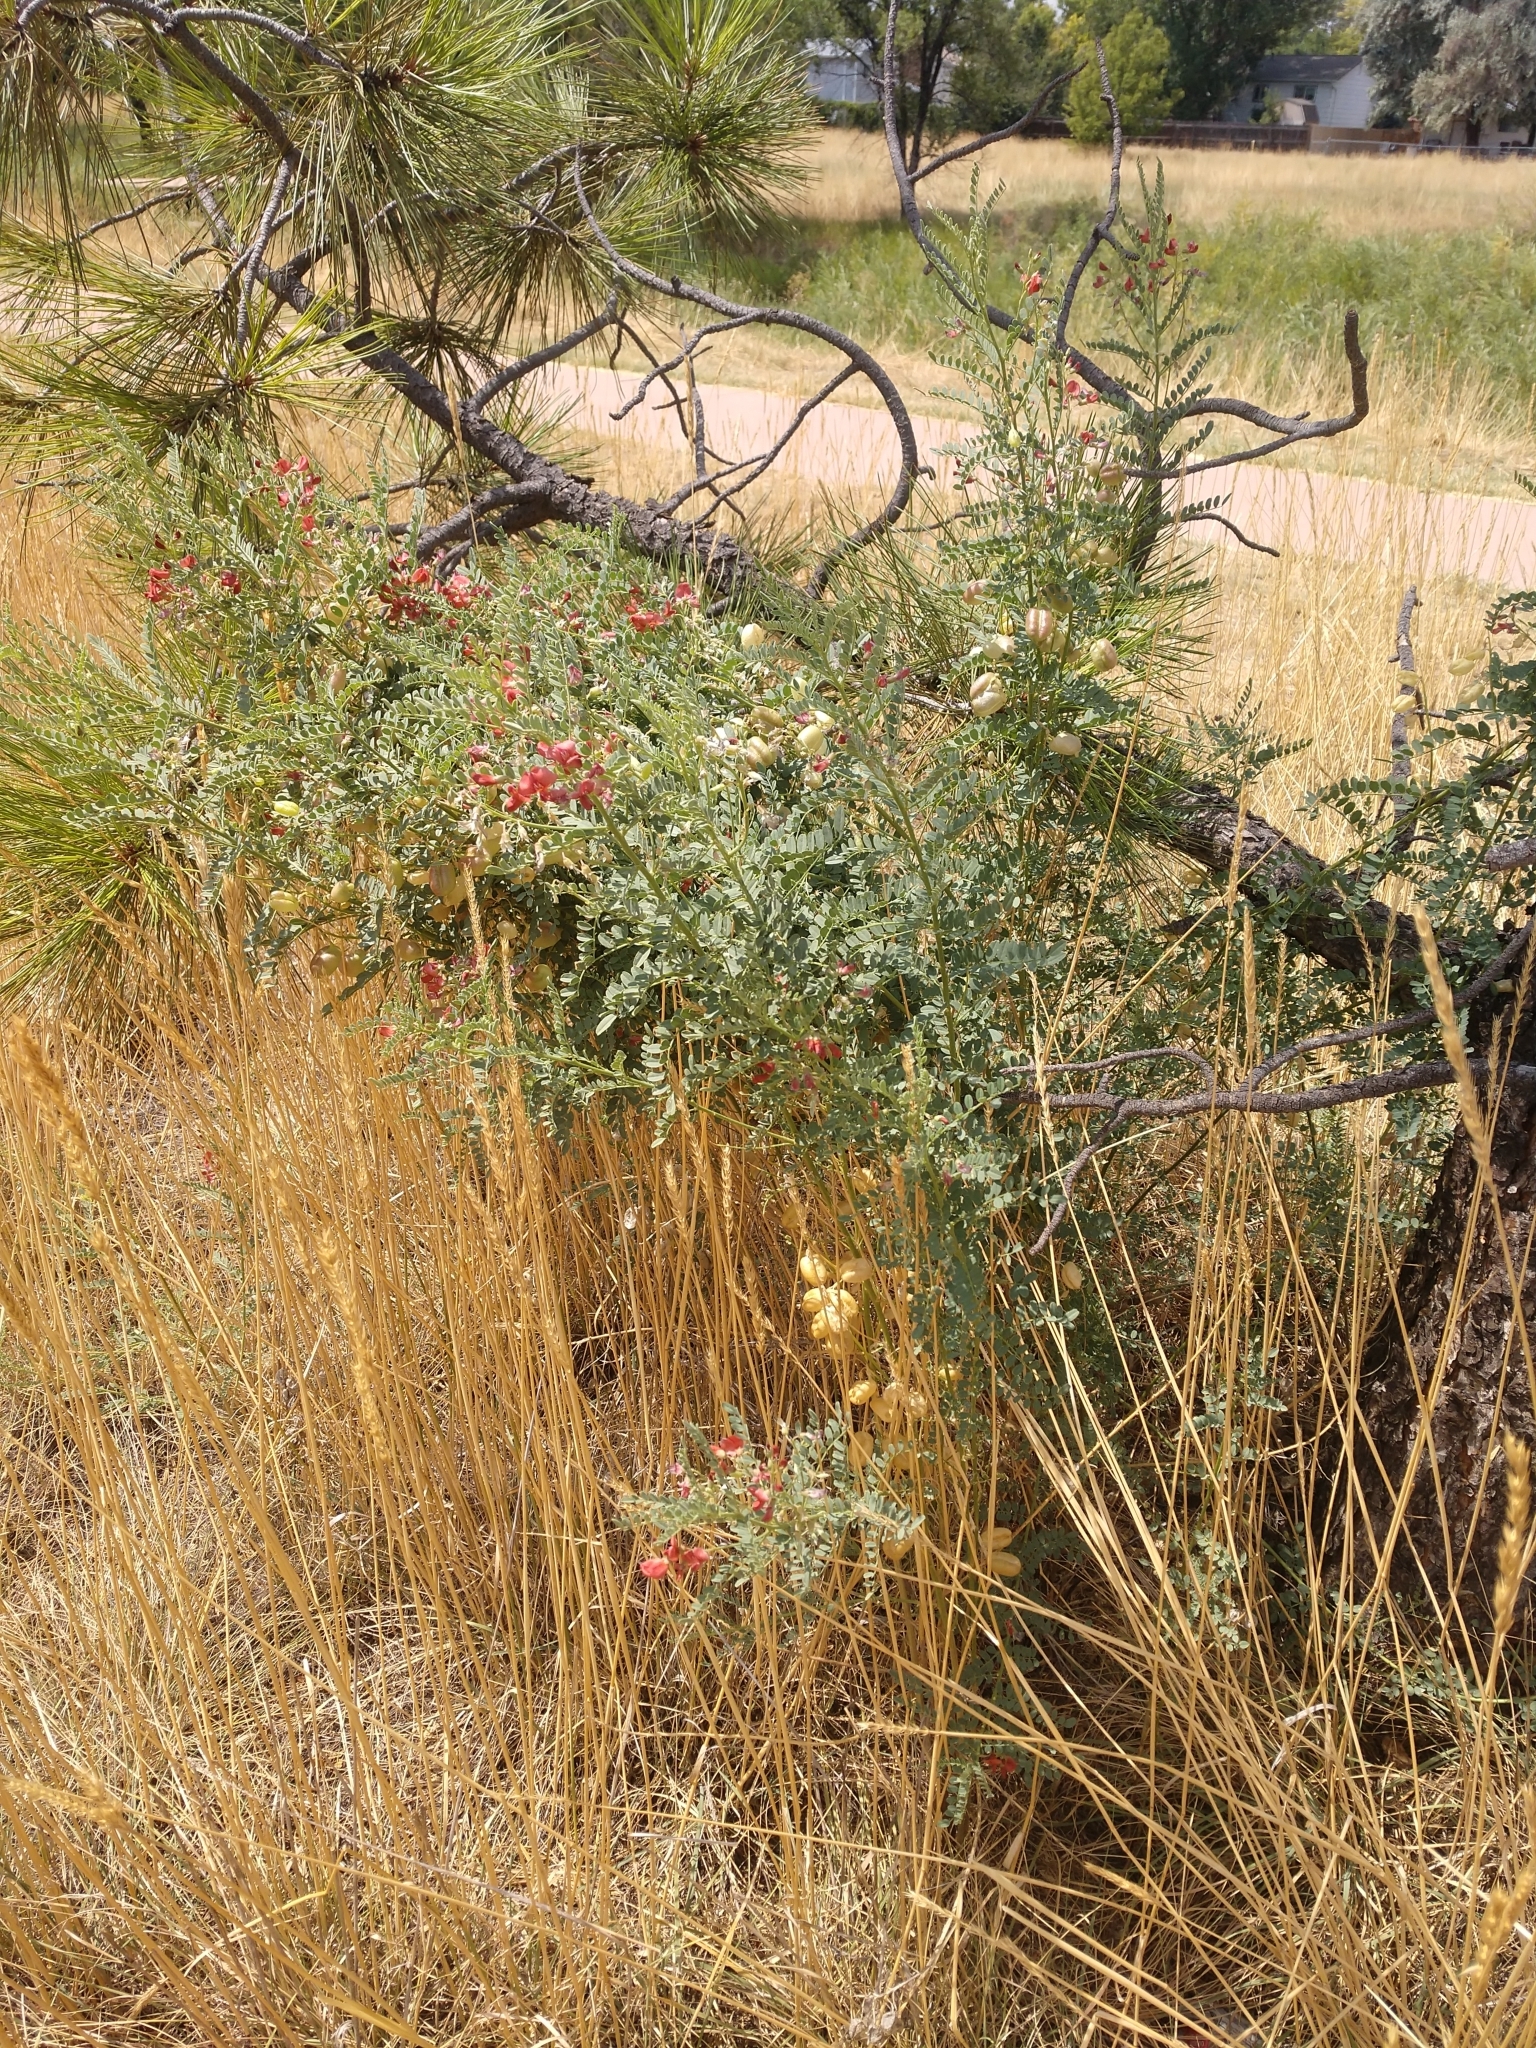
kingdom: Plantae
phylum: Tracheophyta
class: Magnoliopsida
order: Fabales
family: Fabaceae
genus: Sphaerophysa
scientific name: Sphaerophysa salsula
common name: Alkali swainsonpea
